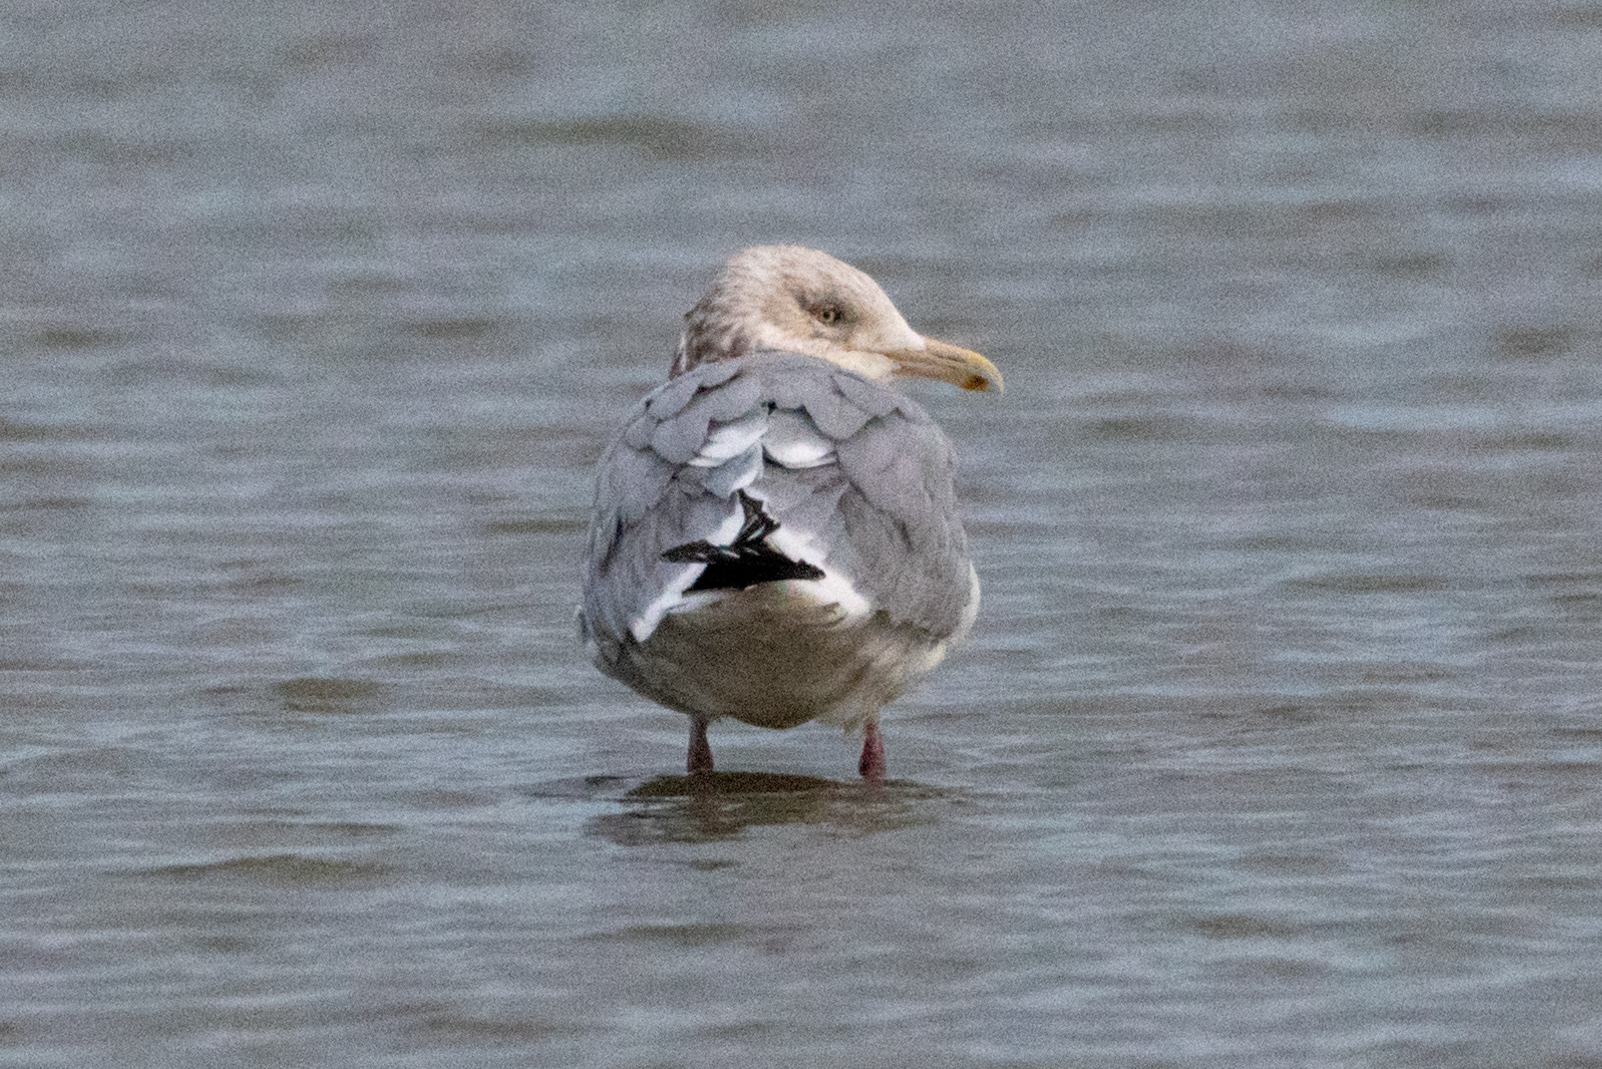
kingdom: Animalia
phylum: Chordata
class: Aves
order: Charadriiformes
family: Laridae
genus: Larus
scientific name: Larus argentatus
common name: Herring gull
